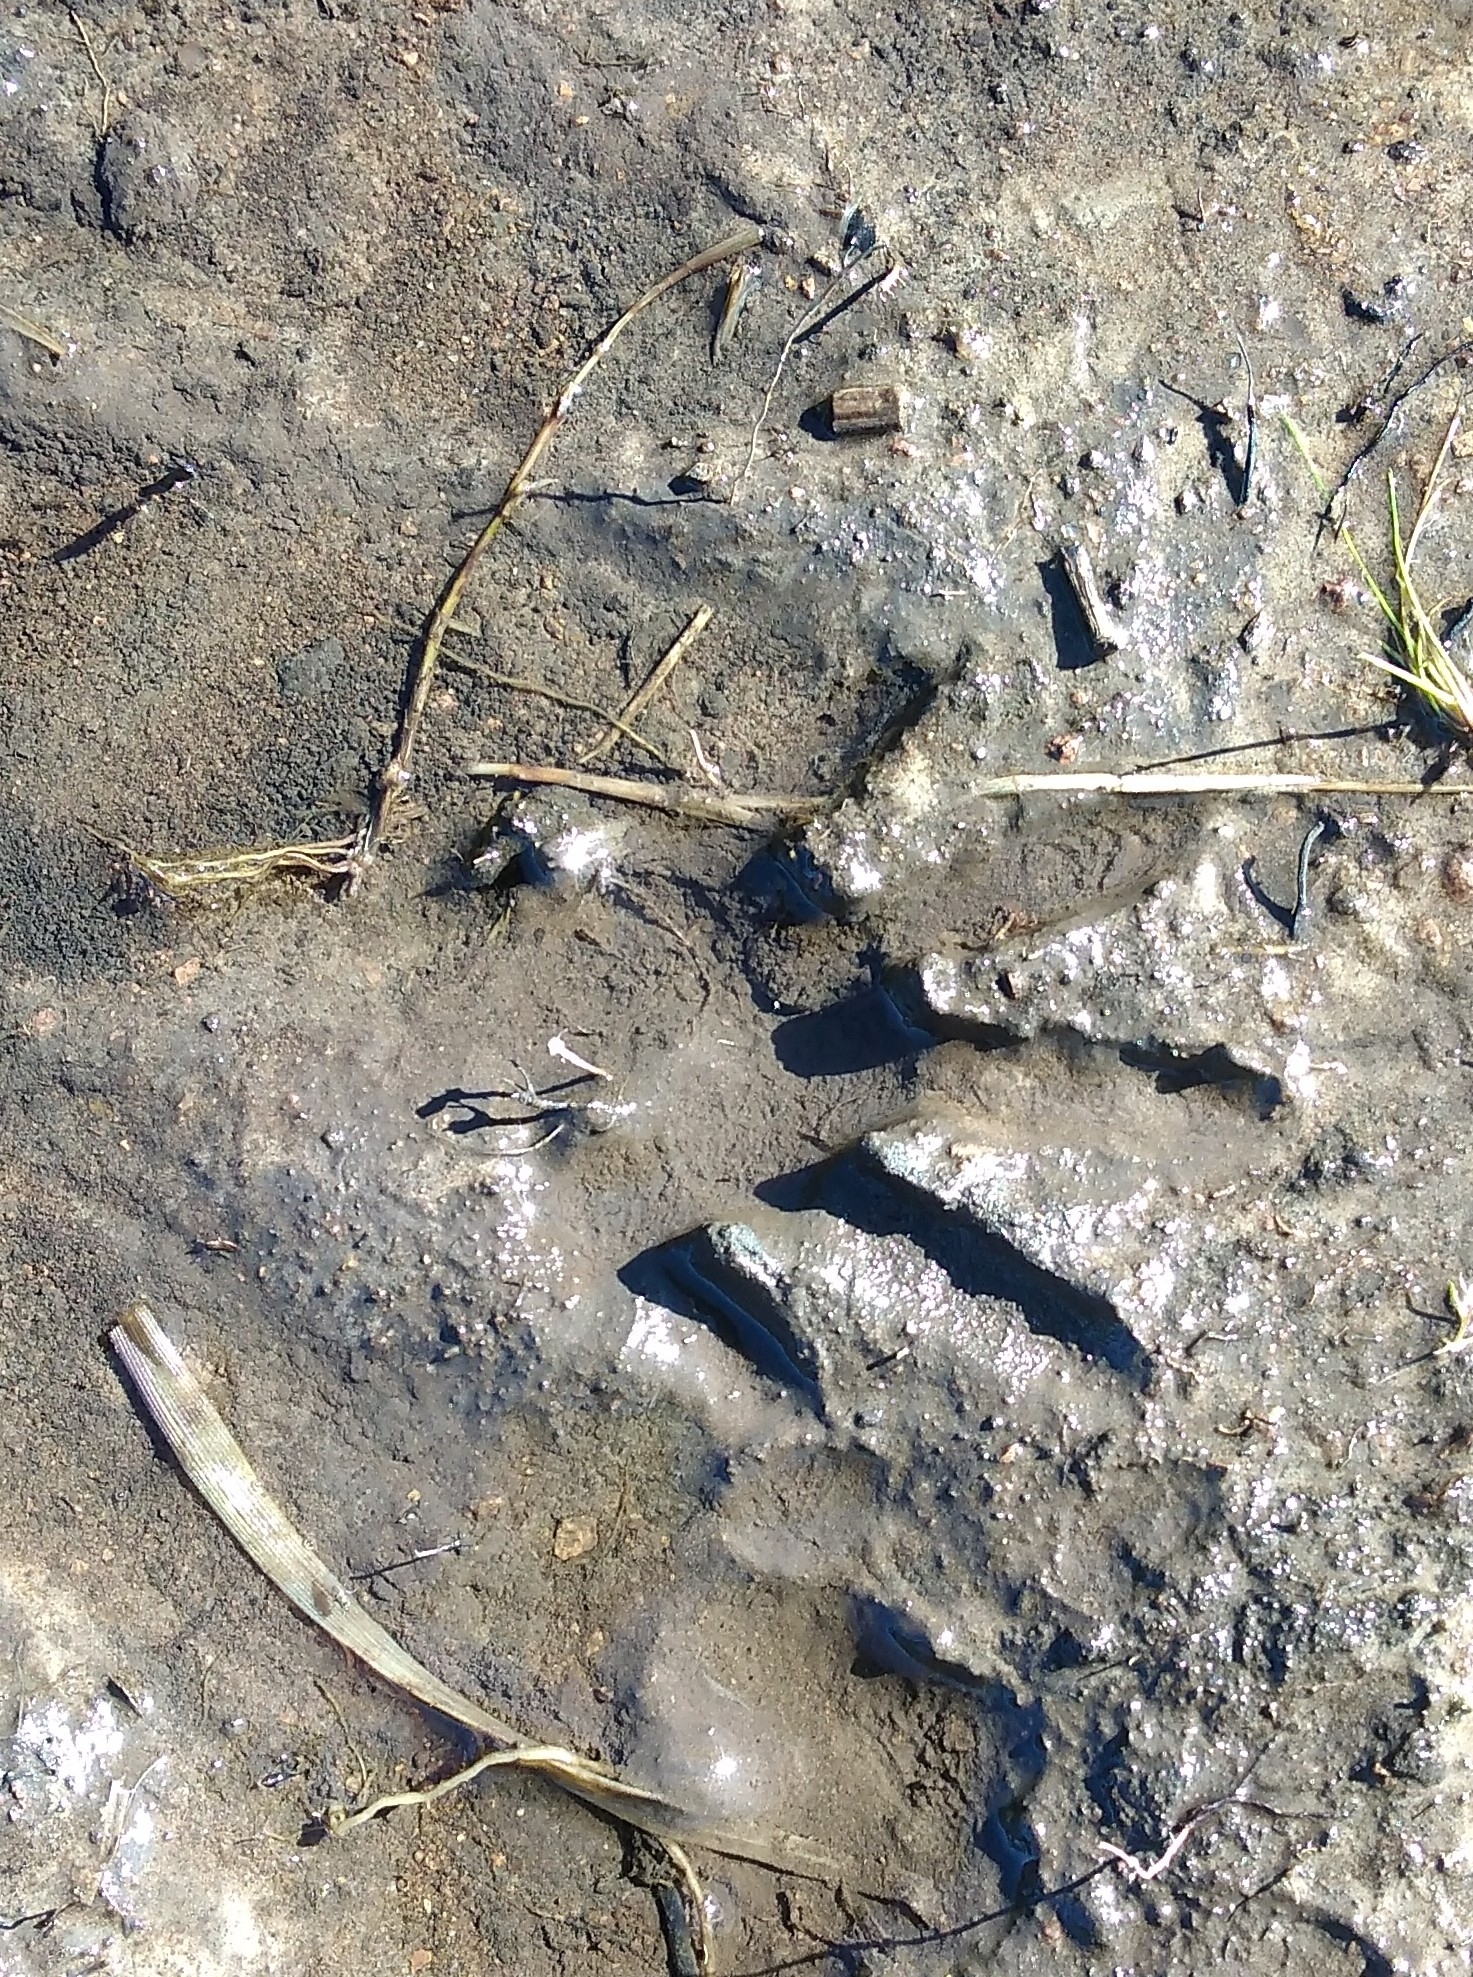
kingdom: Animalia
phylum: Chordata
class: Mammalia
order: Carnivora
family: Procyonidae
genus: Procyon
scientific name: Procyon cancrivorus
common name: Crab-eating raccoon
